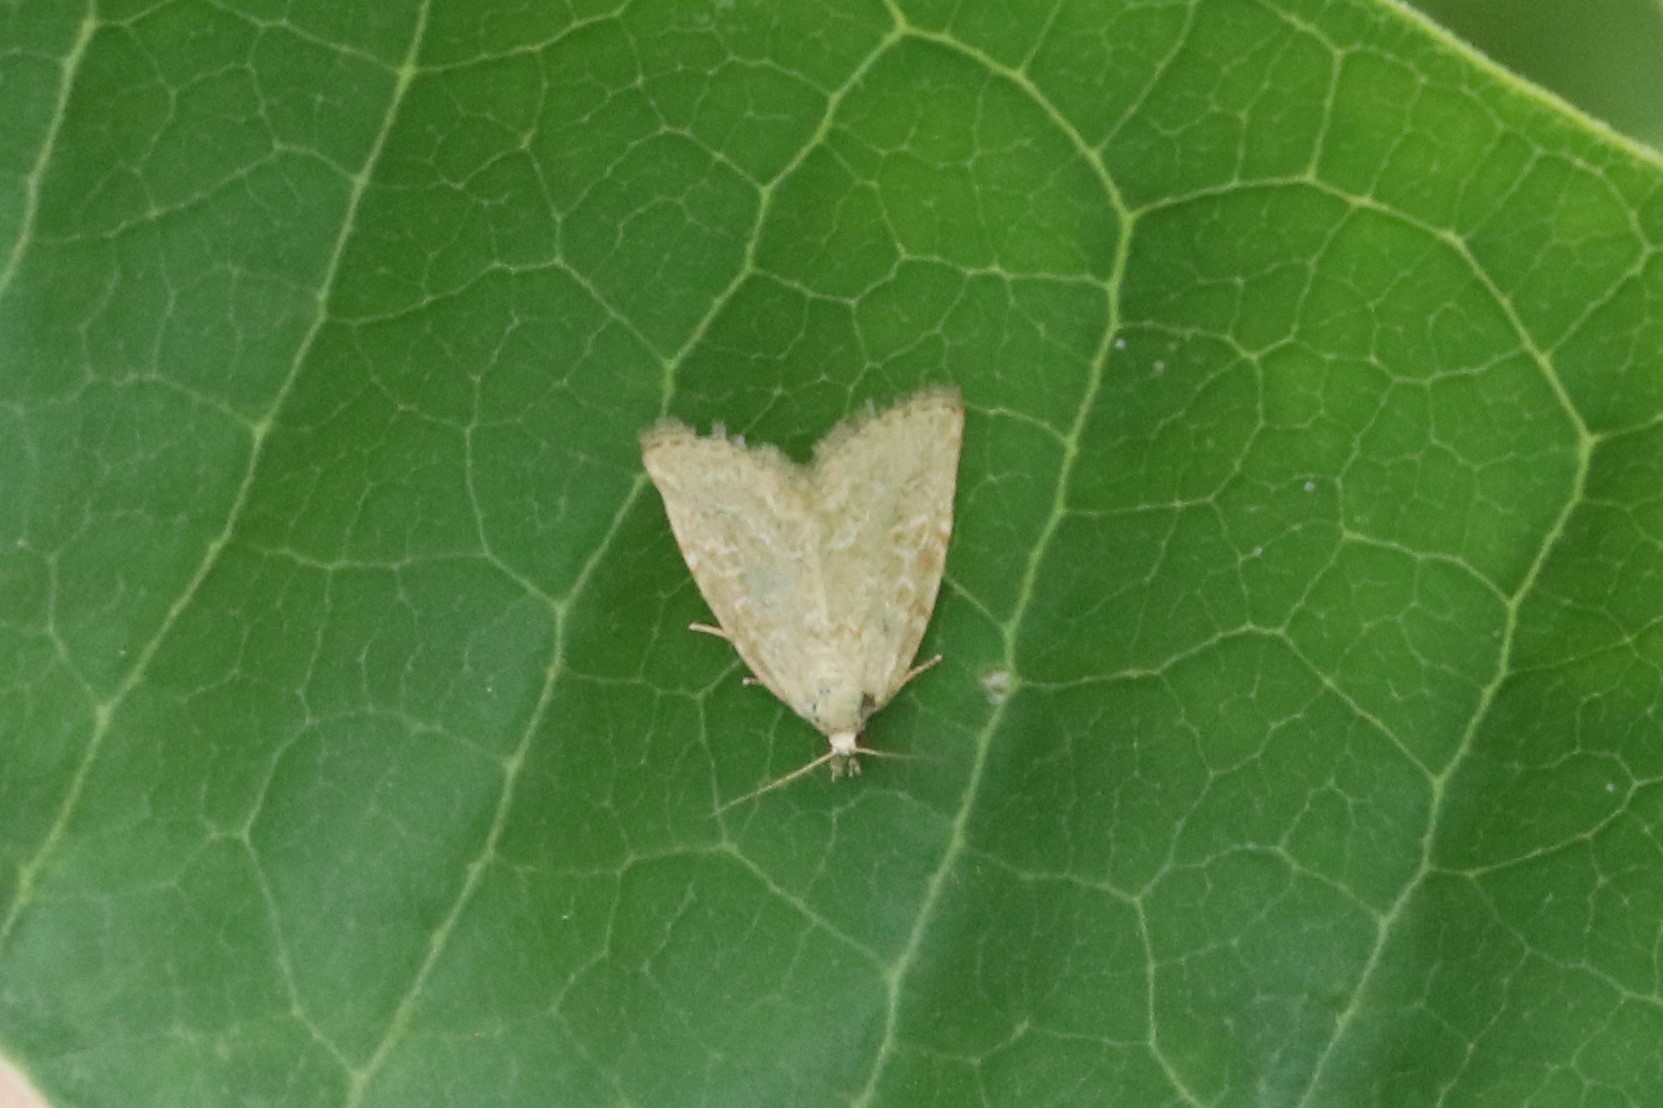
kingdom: Animalia
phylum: Arthropoda
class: Insecta
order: Lepidoptera
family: Noctuidae
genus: Protodeltote
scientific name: Protodeltote albidula
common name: Pale glyph
